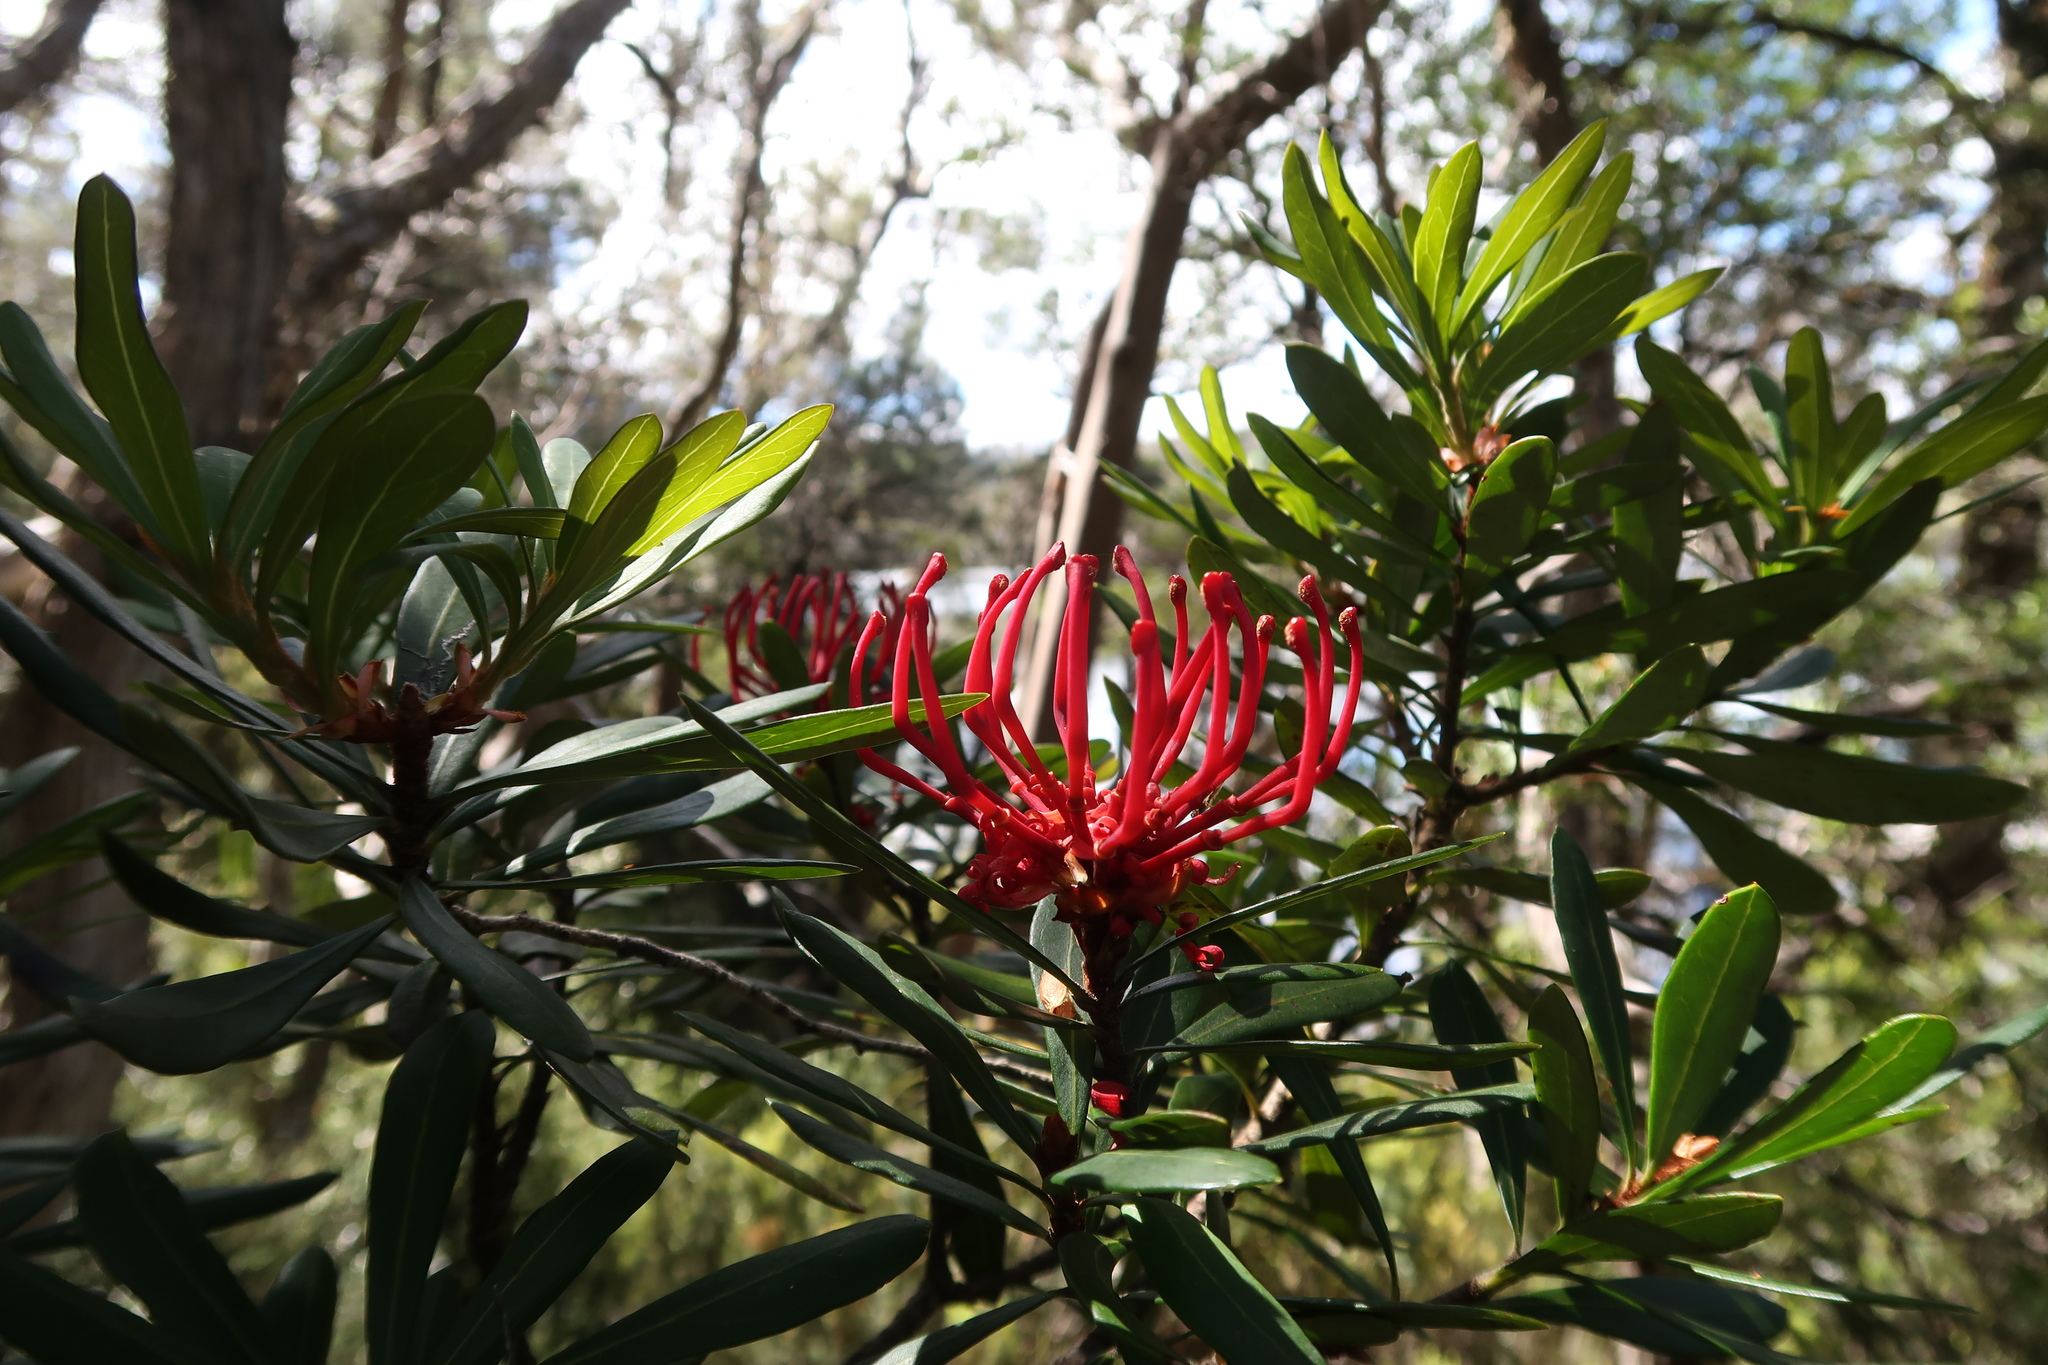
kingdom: Plantae
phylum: Tracheophyta
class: Magnoliopsida
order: Proteales
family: Proteaceae
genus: Telopea
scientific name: Telopea truncata
